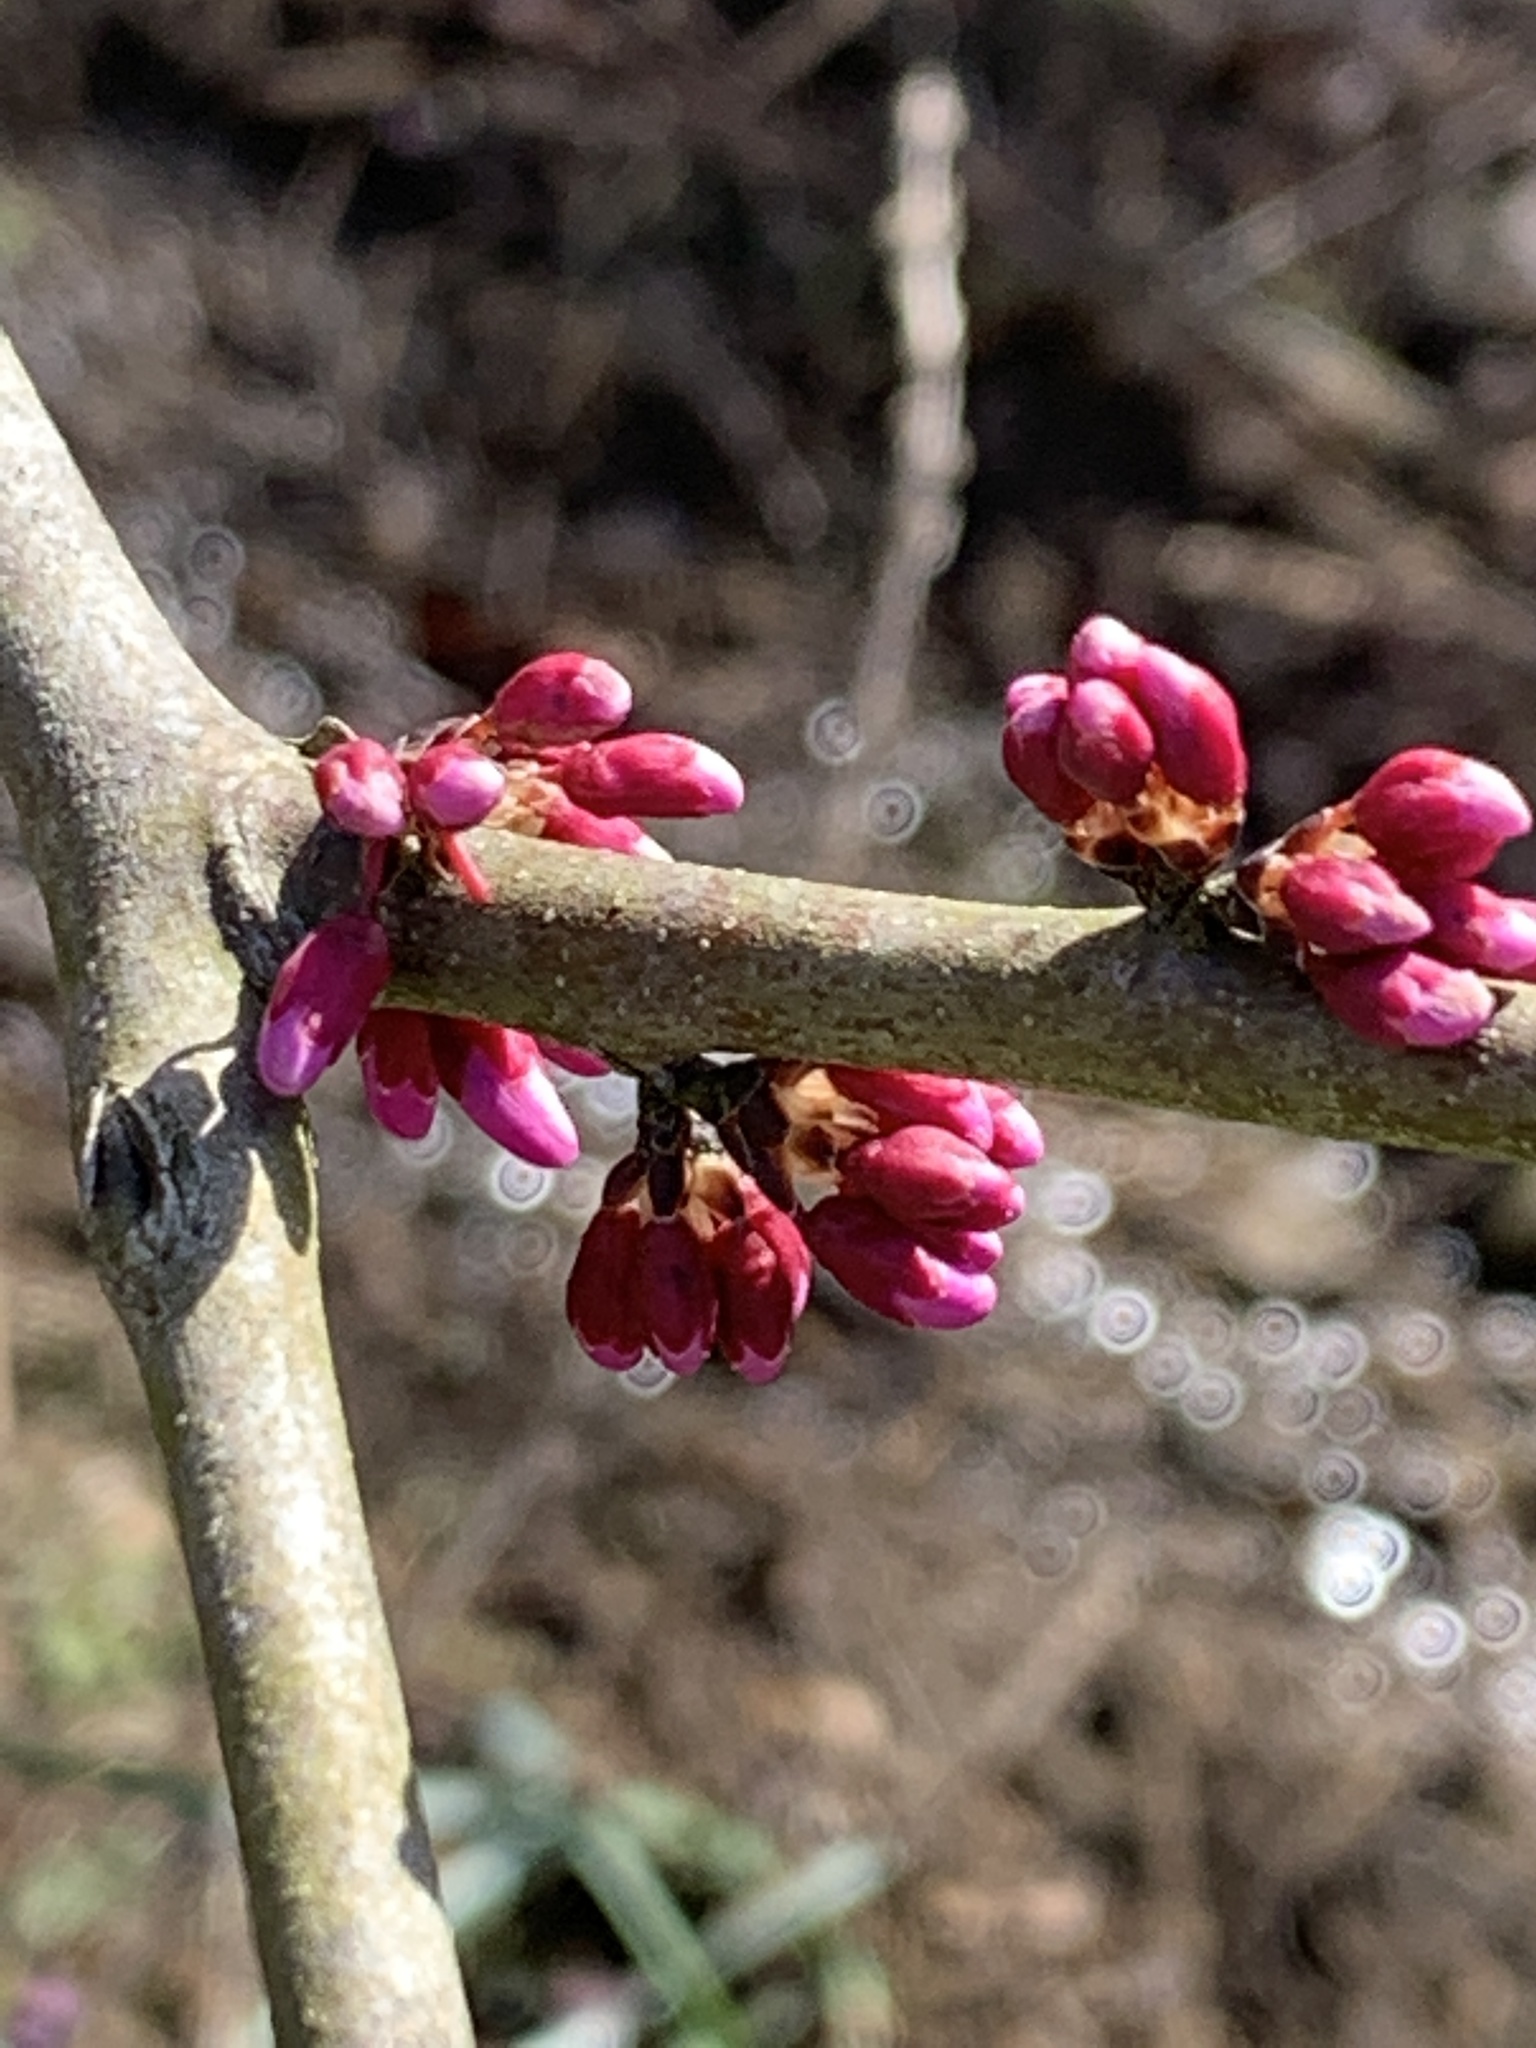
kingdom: Plantae
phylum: Tracheophyta
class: Magnoliopsida
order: Fabales
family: Fabaceae
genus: Cercis
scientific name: Cercis canadensis
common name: Eastern redbud
